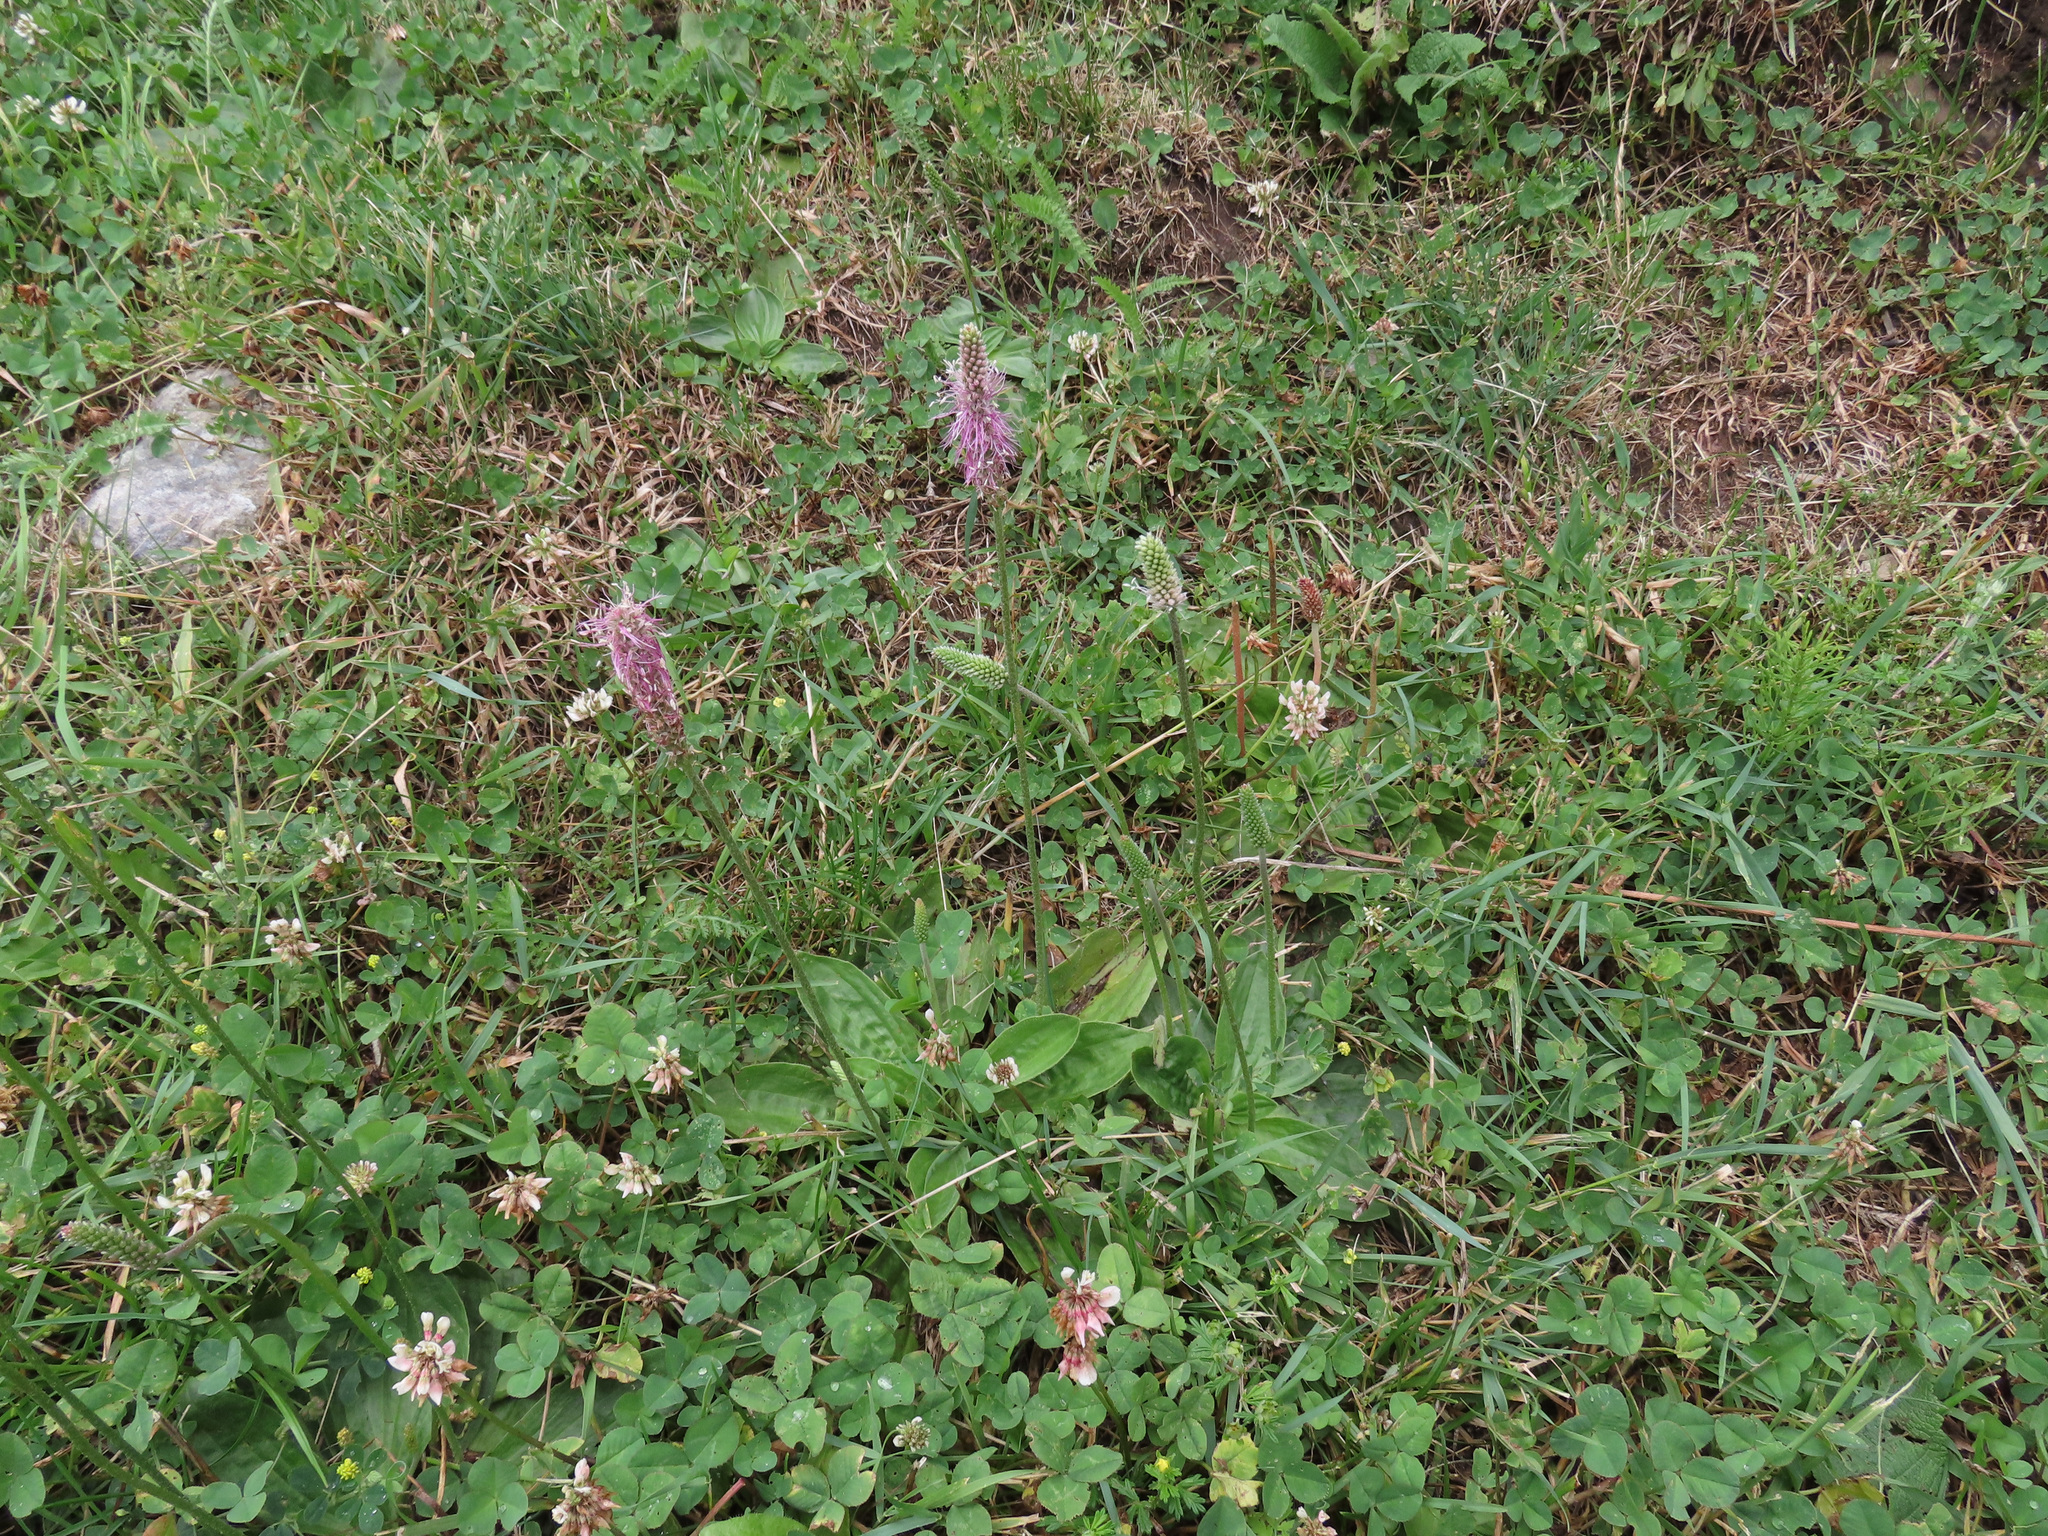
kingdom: Plantae
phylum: Tracheophyta
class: Magnoliopsida
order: Lamiales
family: Plantaginaceae
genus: Plantago
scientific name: Plantago media
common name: Hoary plantain
